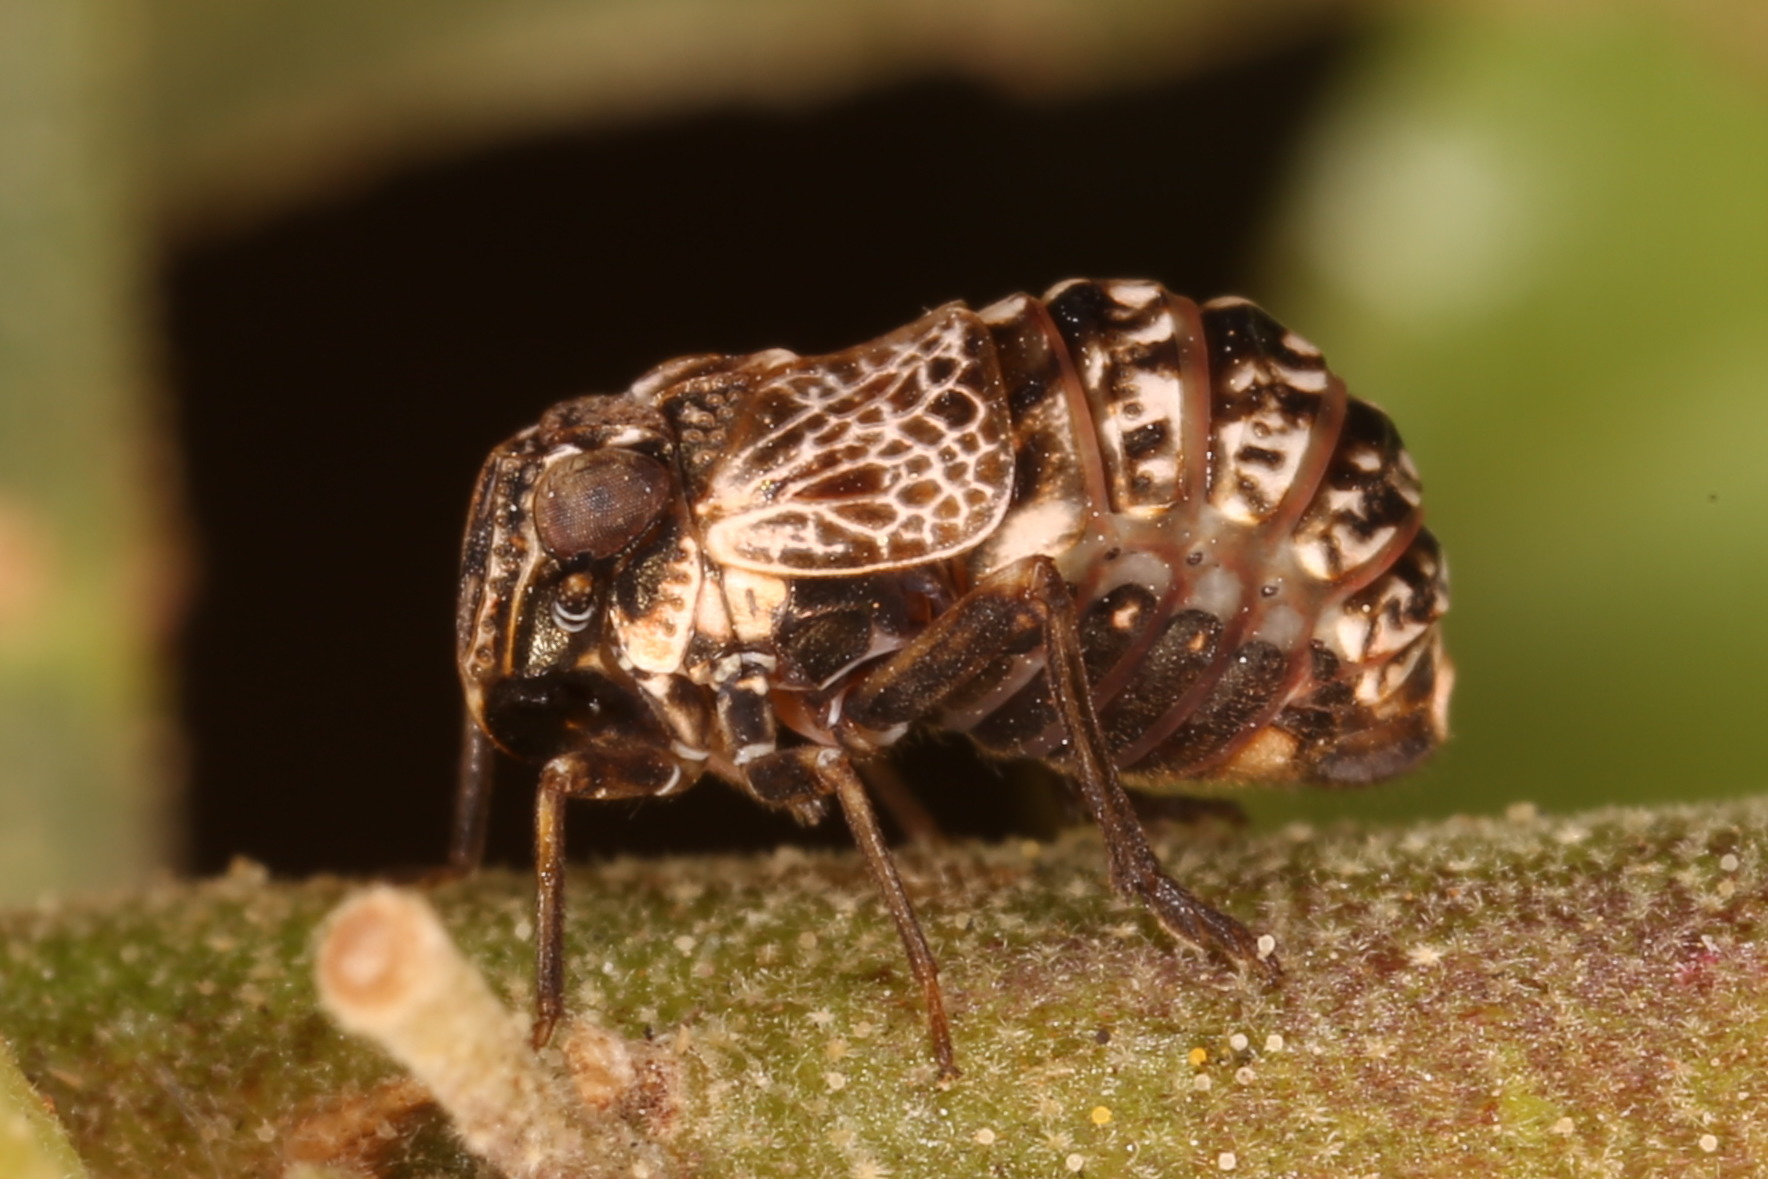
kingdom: Animalia
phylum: Arthropoda
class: Insecta
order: Hemiptera
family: Caliscelidae
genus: Bruchomorpha
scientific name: Bruchomorpha costaricensis
